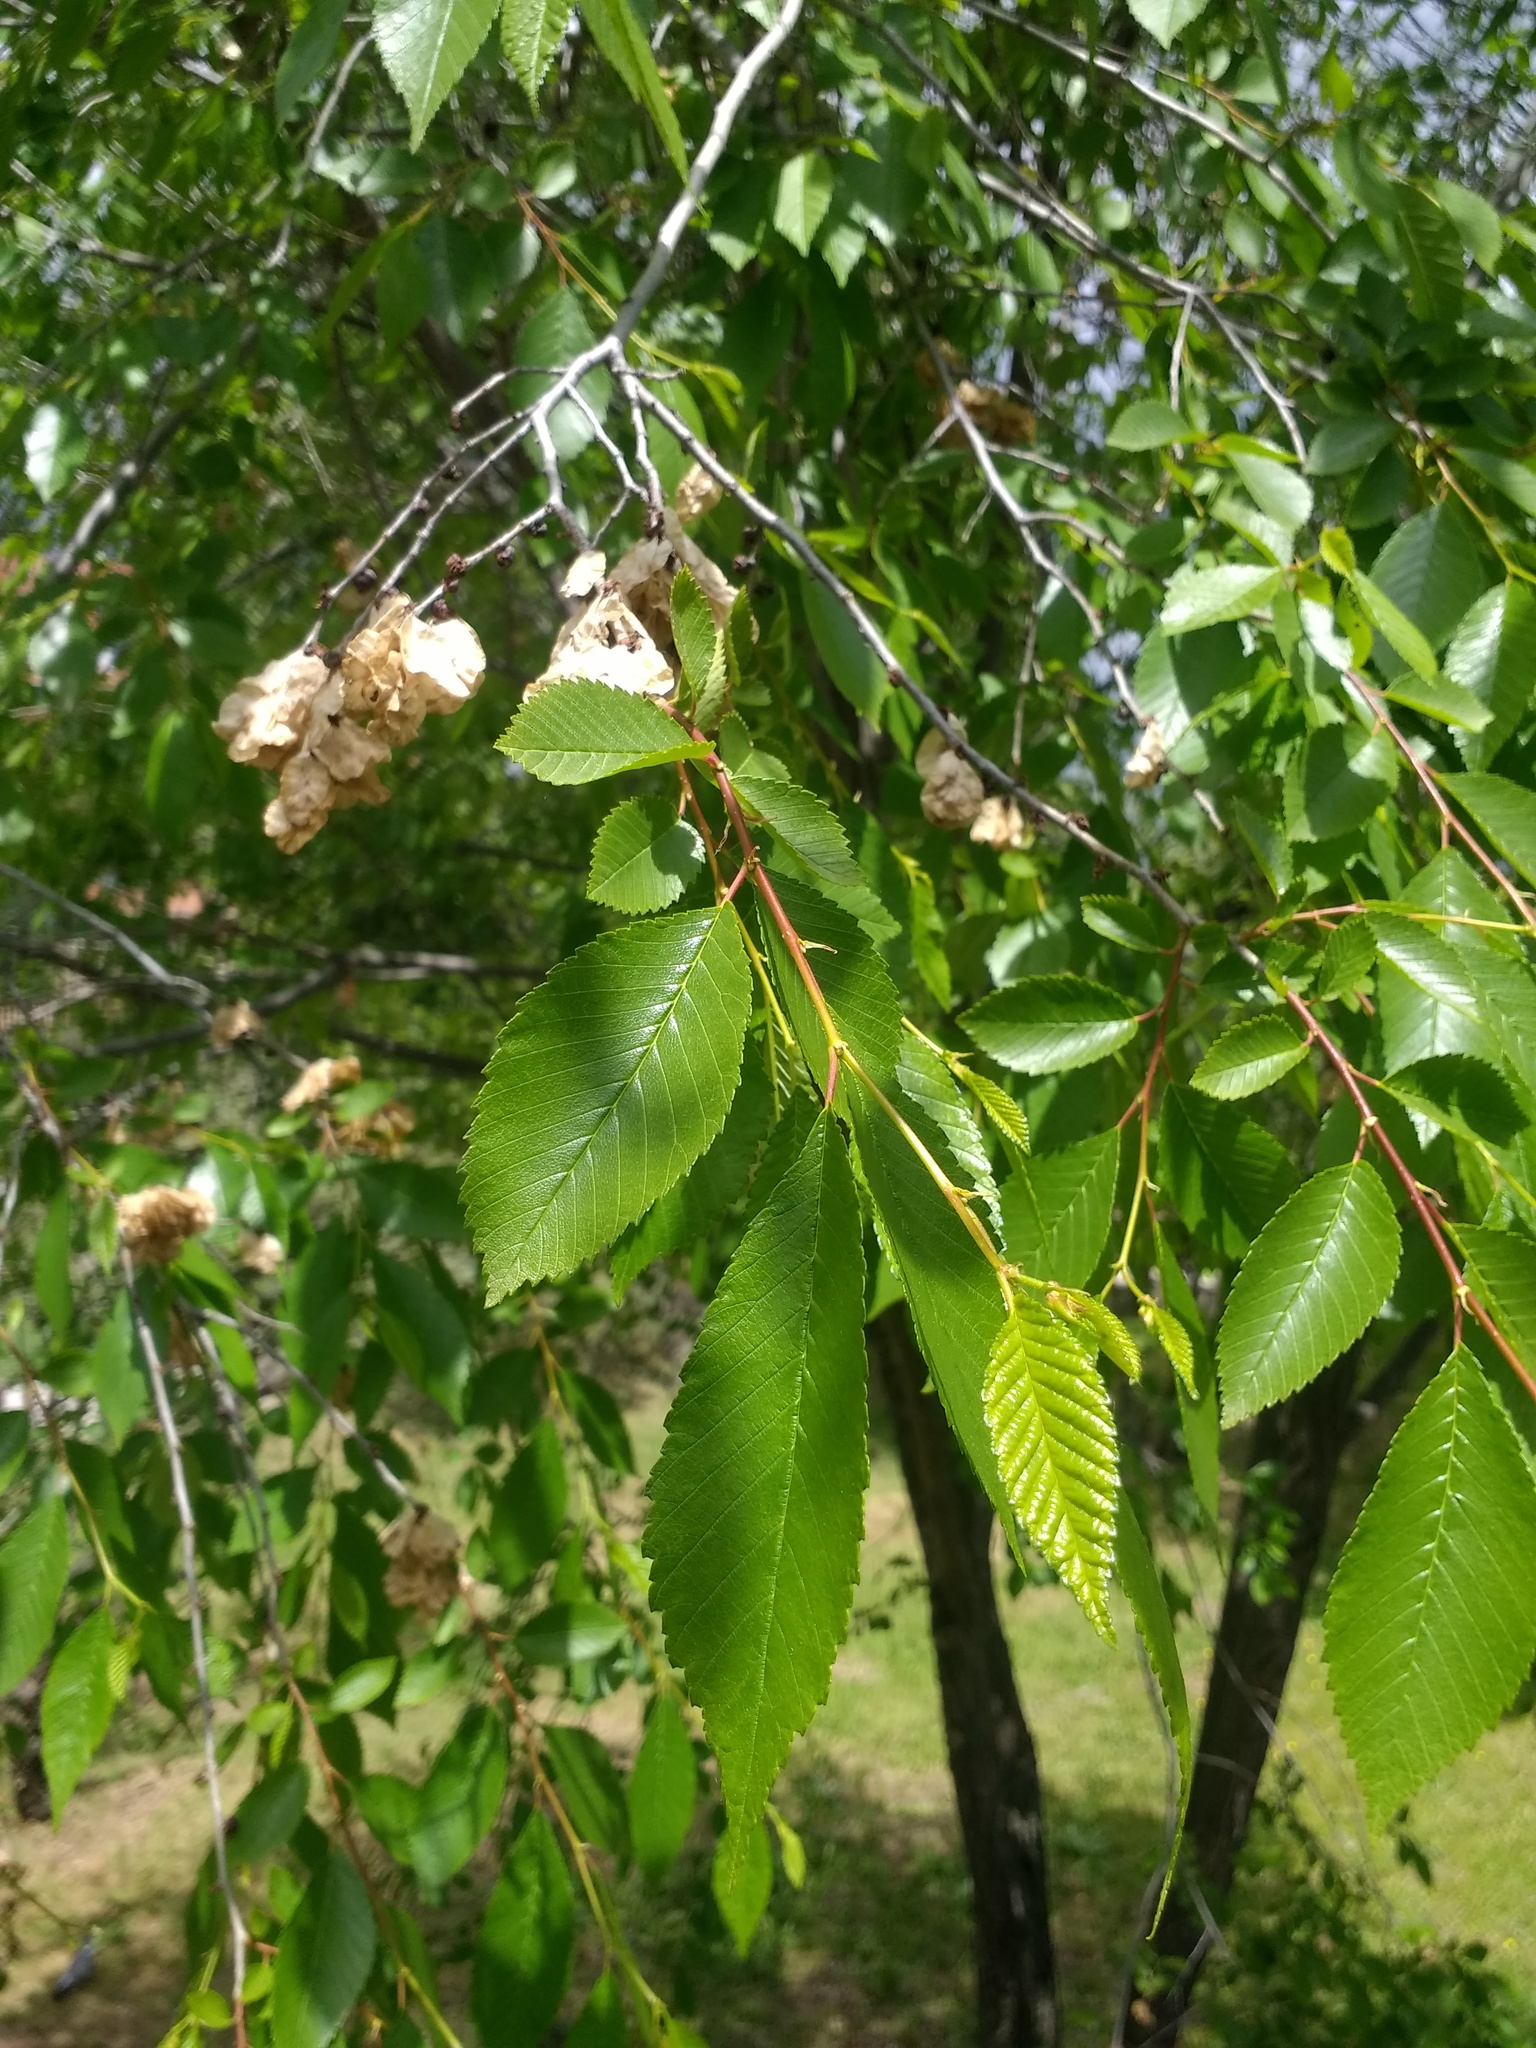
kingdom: Plantae
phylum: Tracheophyta
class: Magnoliopsida
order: Rosales
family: Ulmaceae
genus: Ulmus
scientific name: Ulmus pumila
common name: Siberian elm
